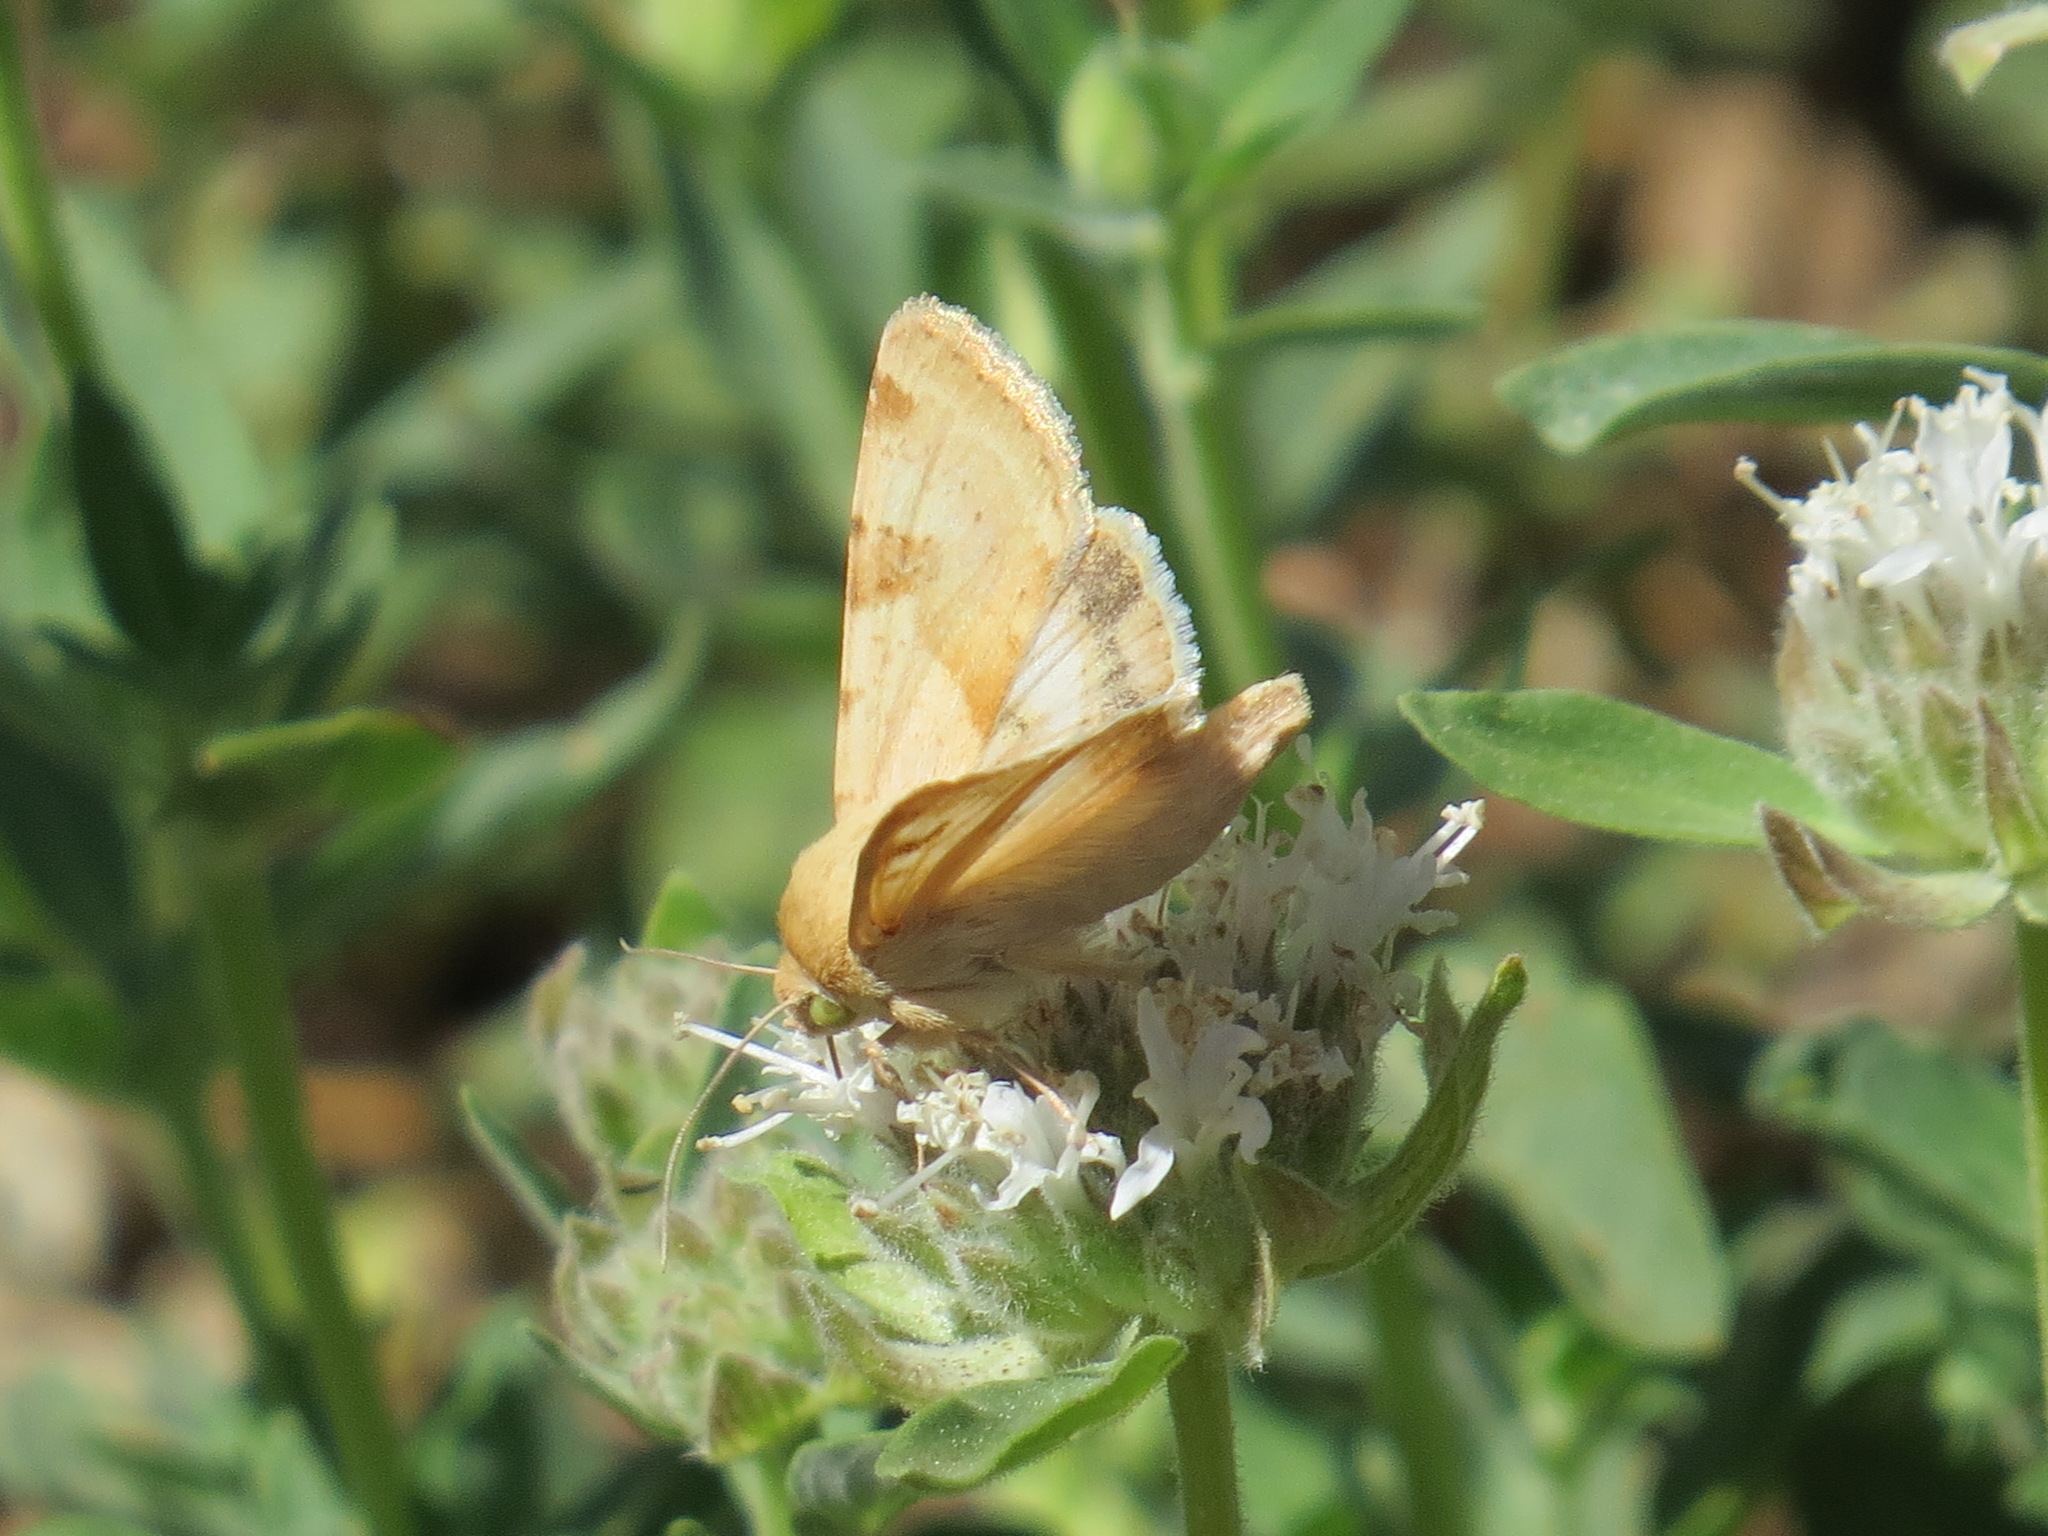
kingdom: Animalia
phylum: Arthropoda
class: Insecta
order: Lepidoptera
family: Noctuidae
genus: Heliothis
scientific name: Heliothis phloxiphaga
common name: Darker spotted straw moth
